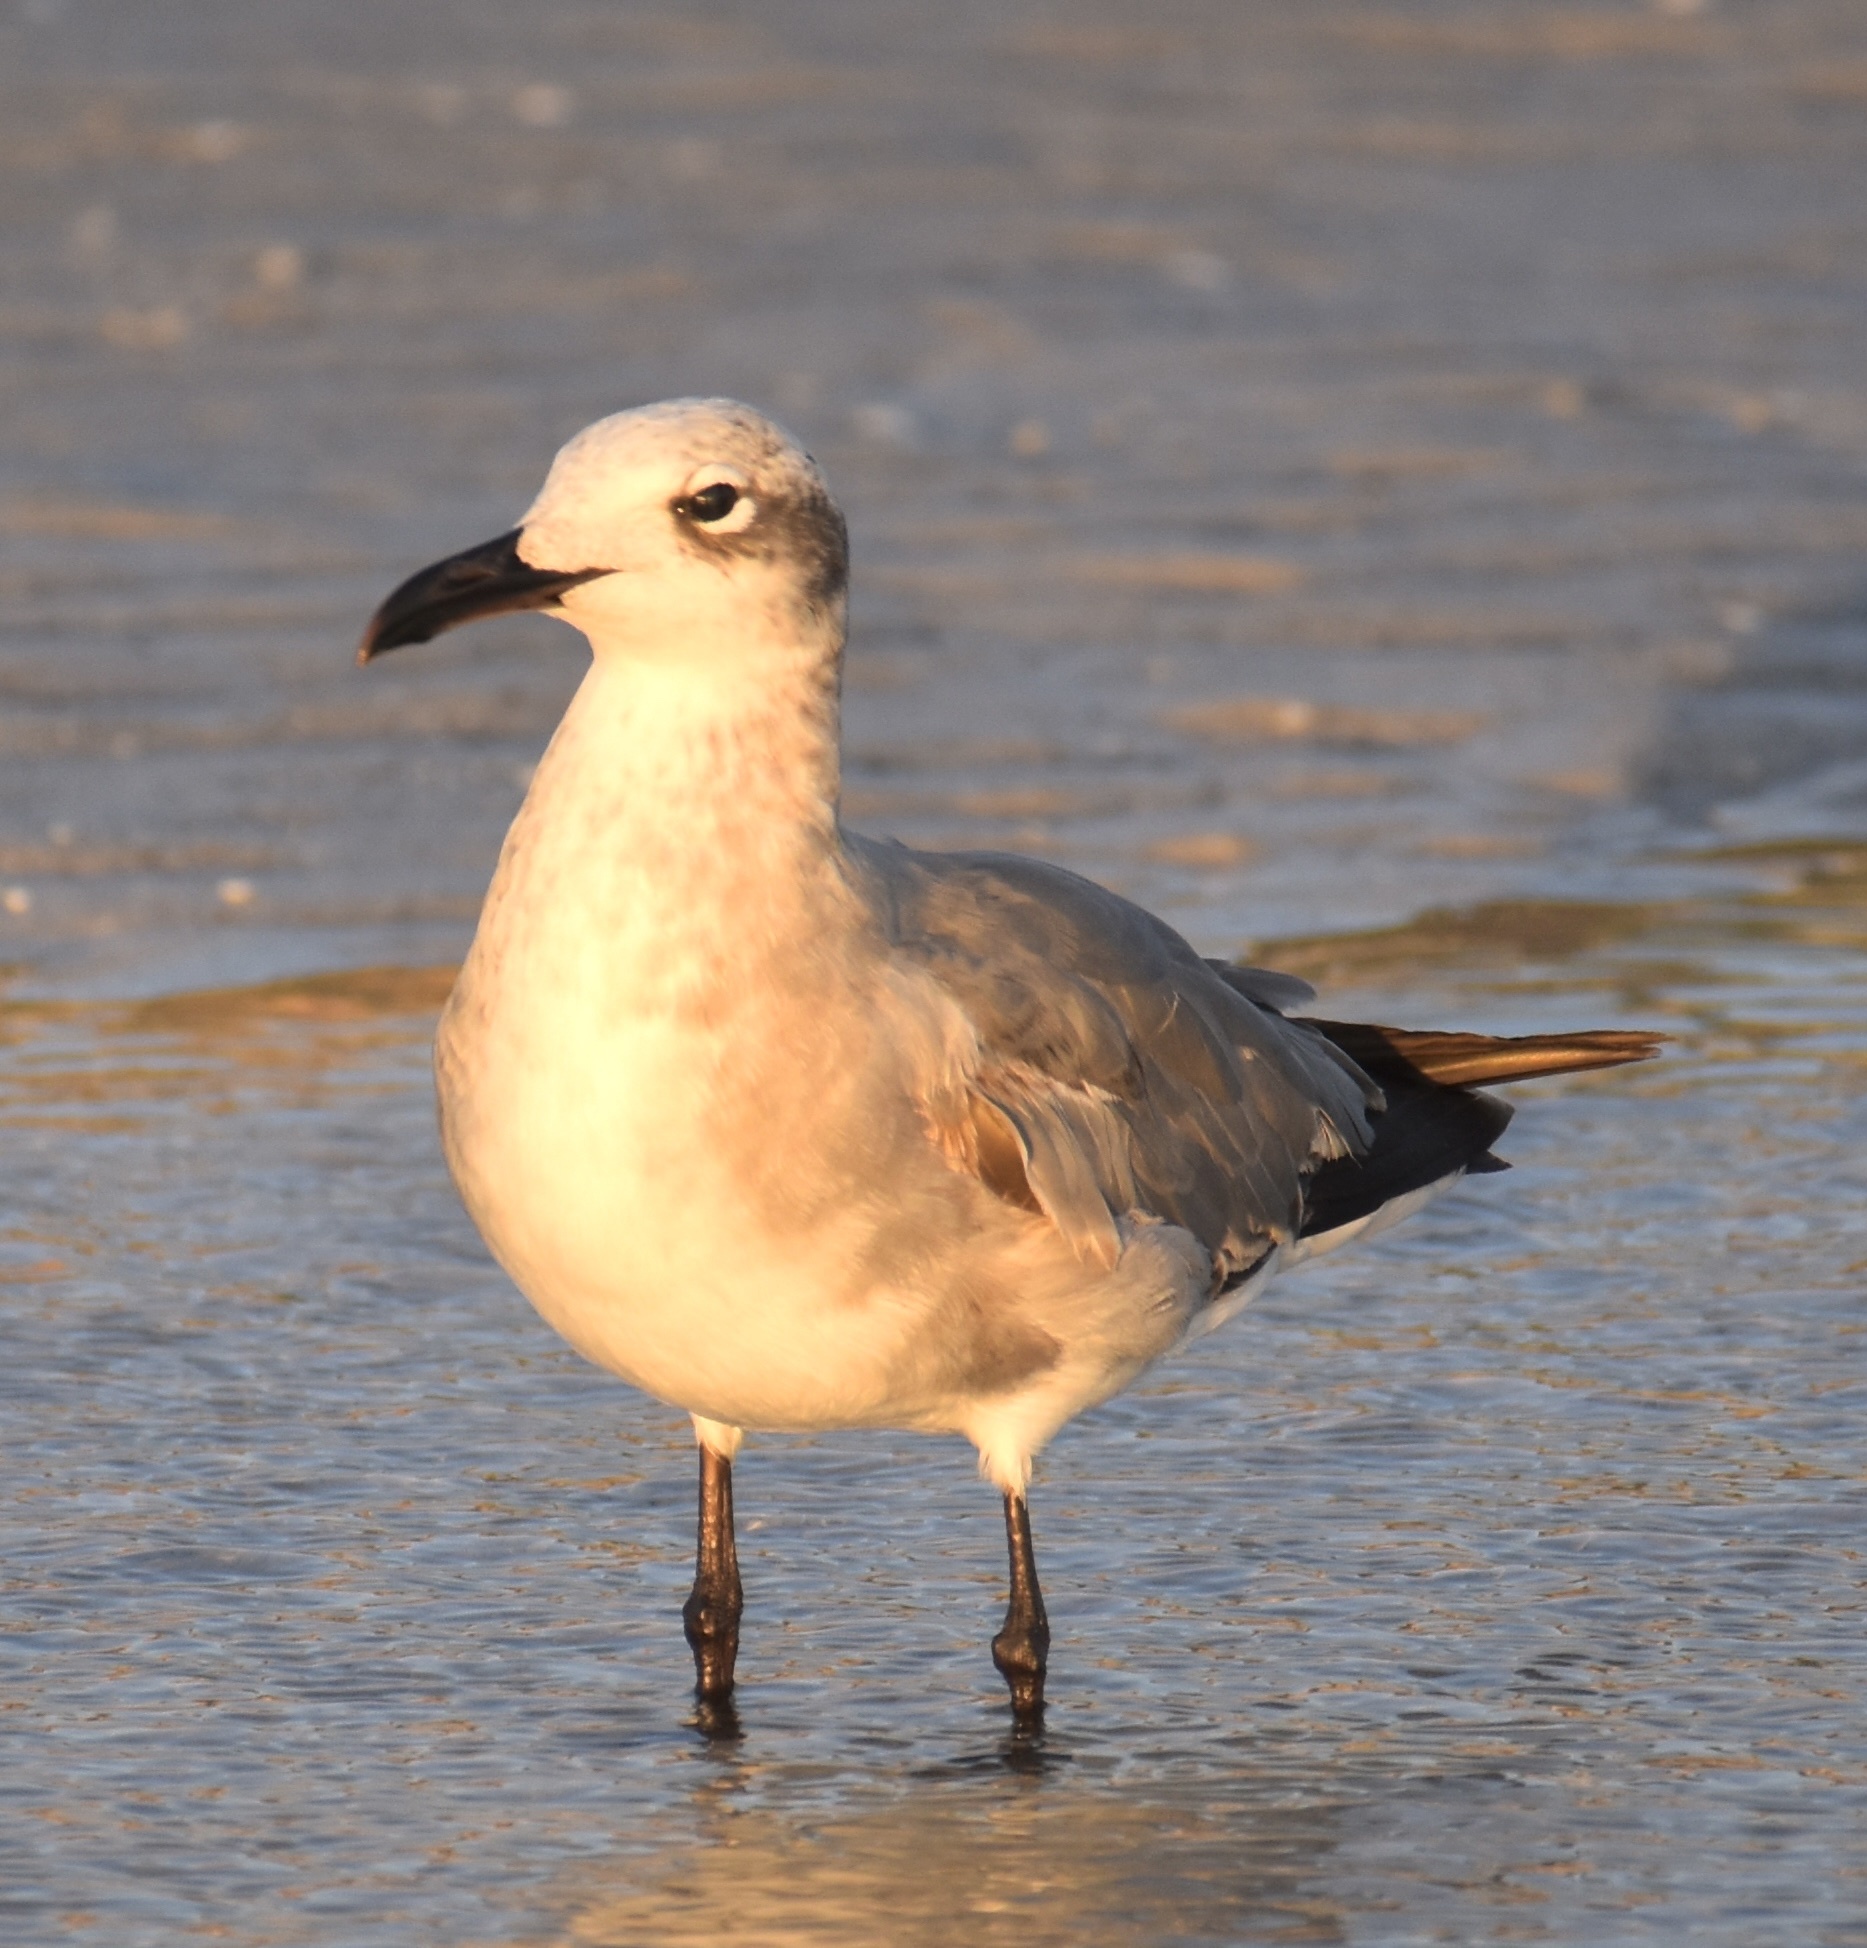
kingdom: Animalia
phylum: Chordata
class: Aves
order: Charadriiformes
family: Laridae
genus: Leucophaeus
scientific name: Leucophaeus atricilla
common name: Laughing gull
